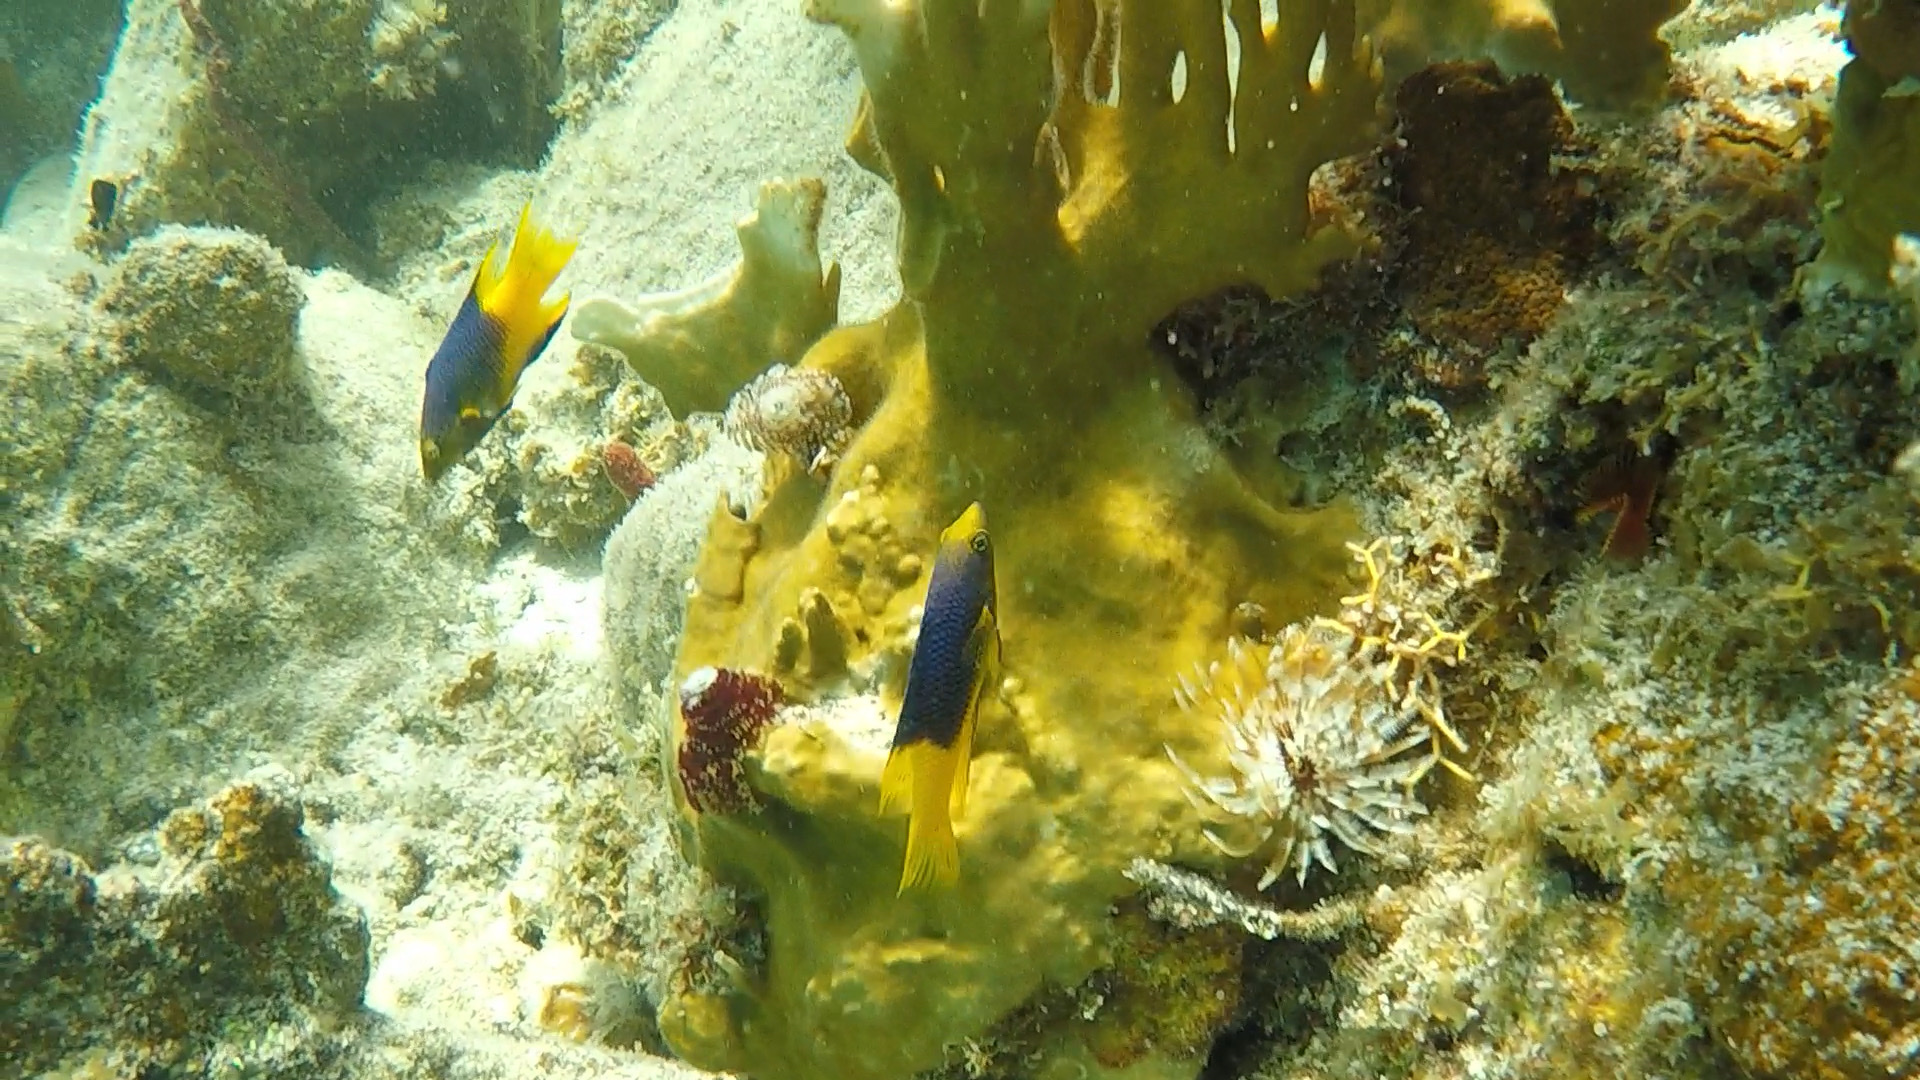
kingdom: Animalia
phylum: Chordata
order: Perciformes
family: Labridae
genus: Bodianus
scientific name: Bodianus rufus
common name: Spanish hogfish
